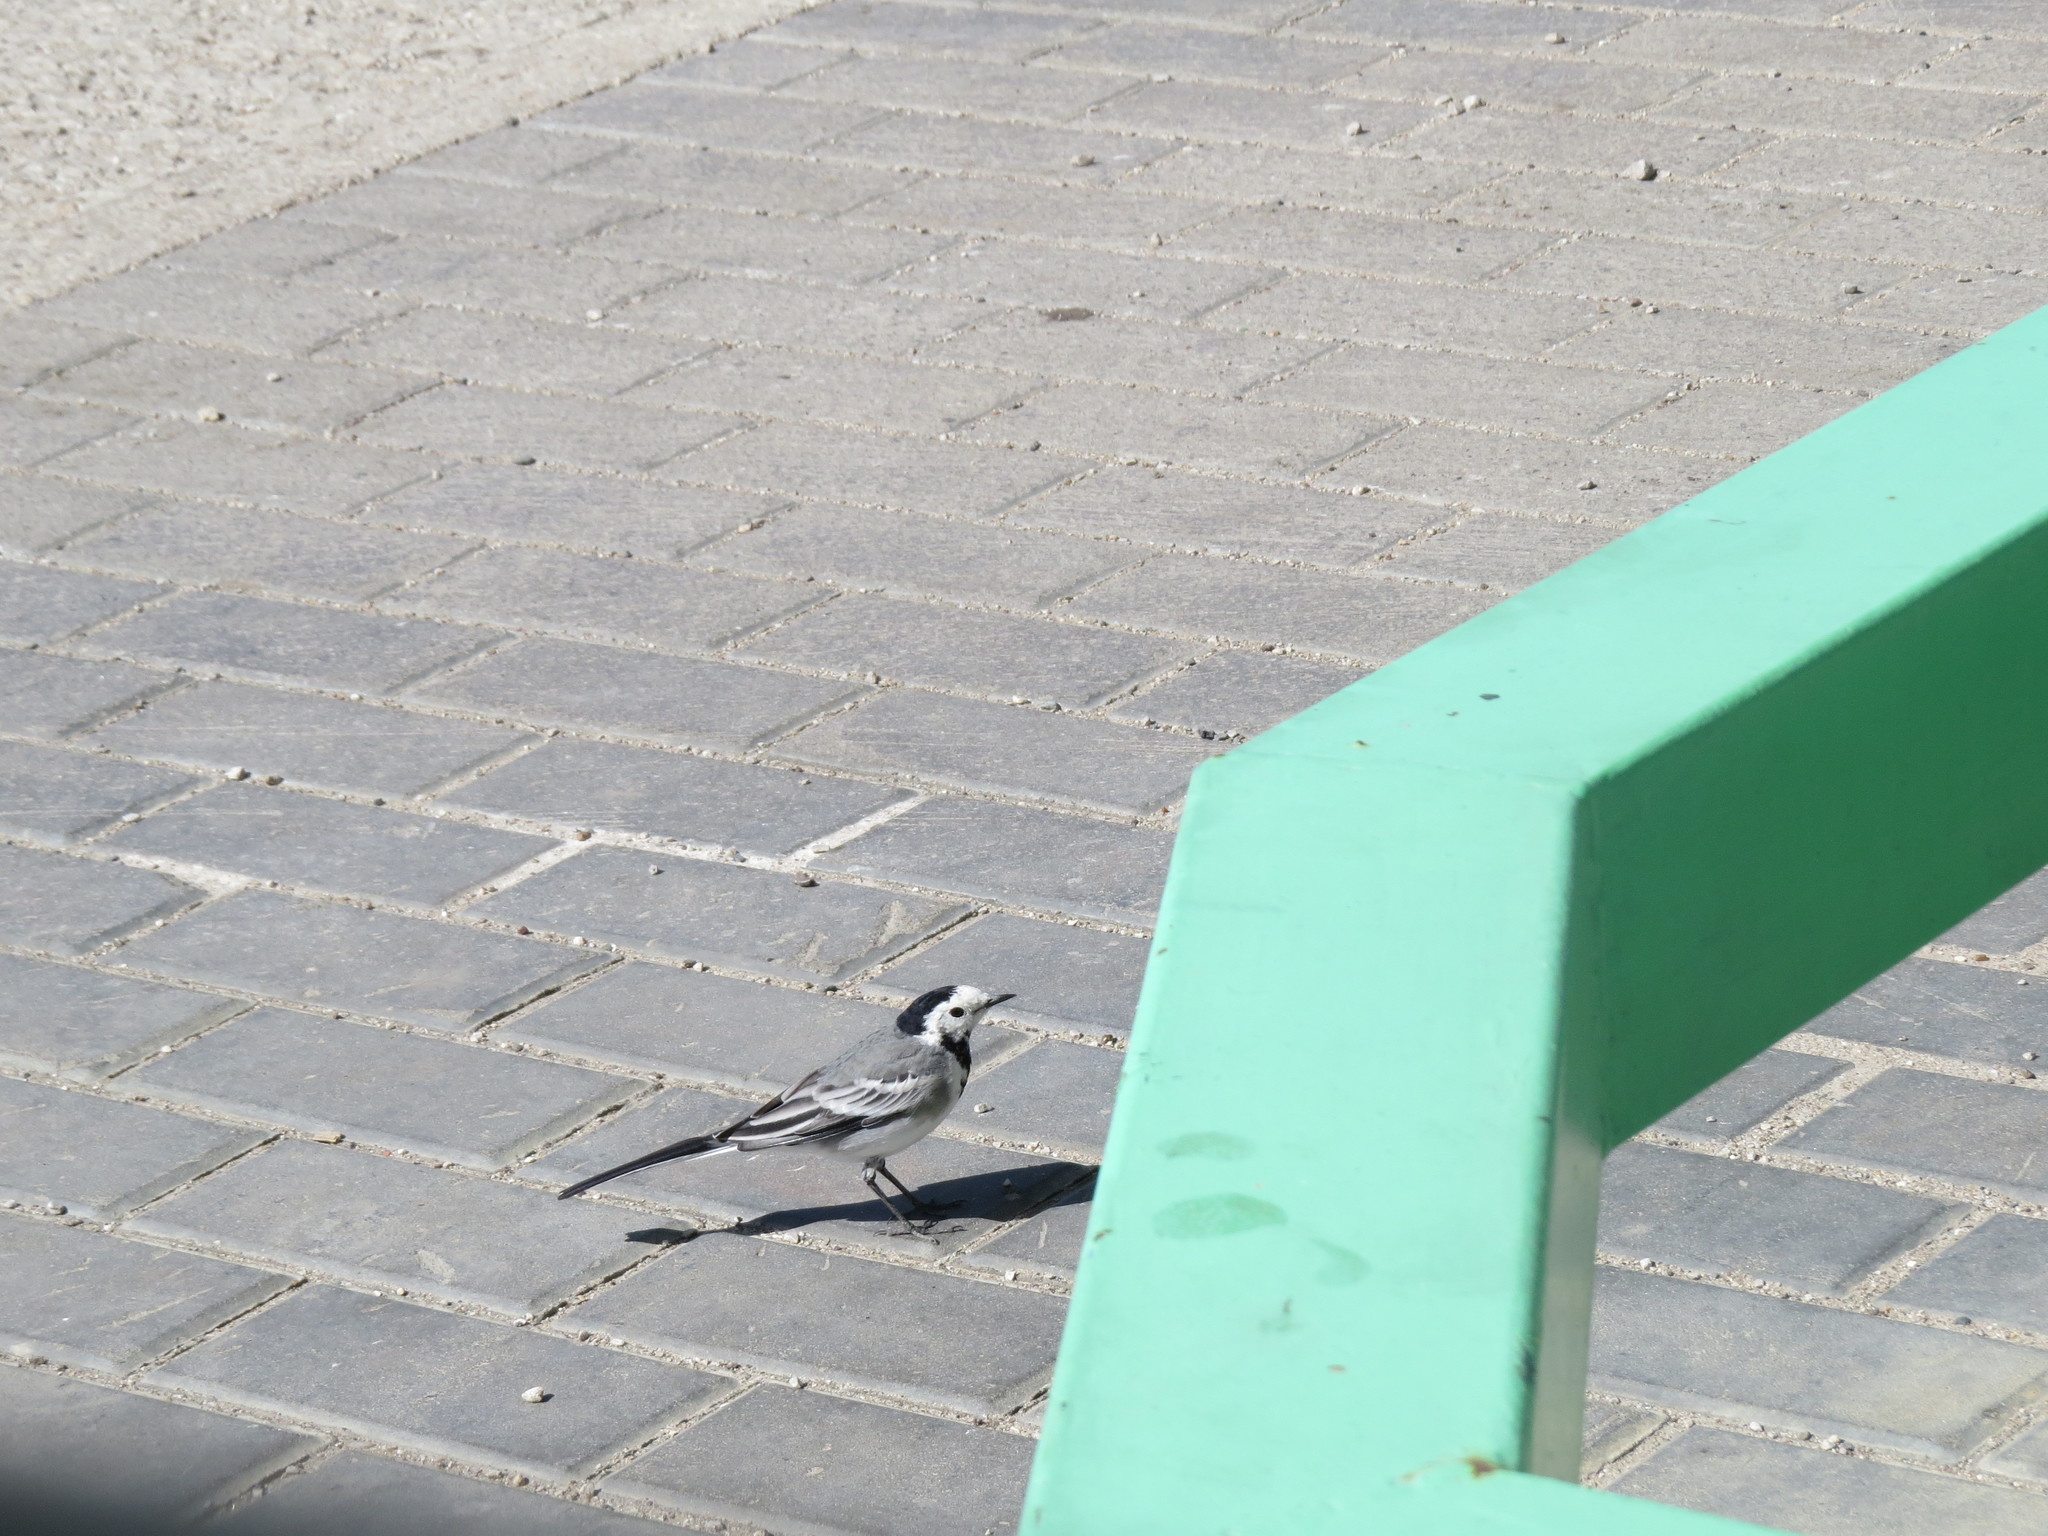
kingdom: Animalia
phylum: Chordata
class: Aves
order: Passeriformes
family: Motacillidae
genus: Motacilla
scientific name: Motacilla alba
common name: White wagtail
